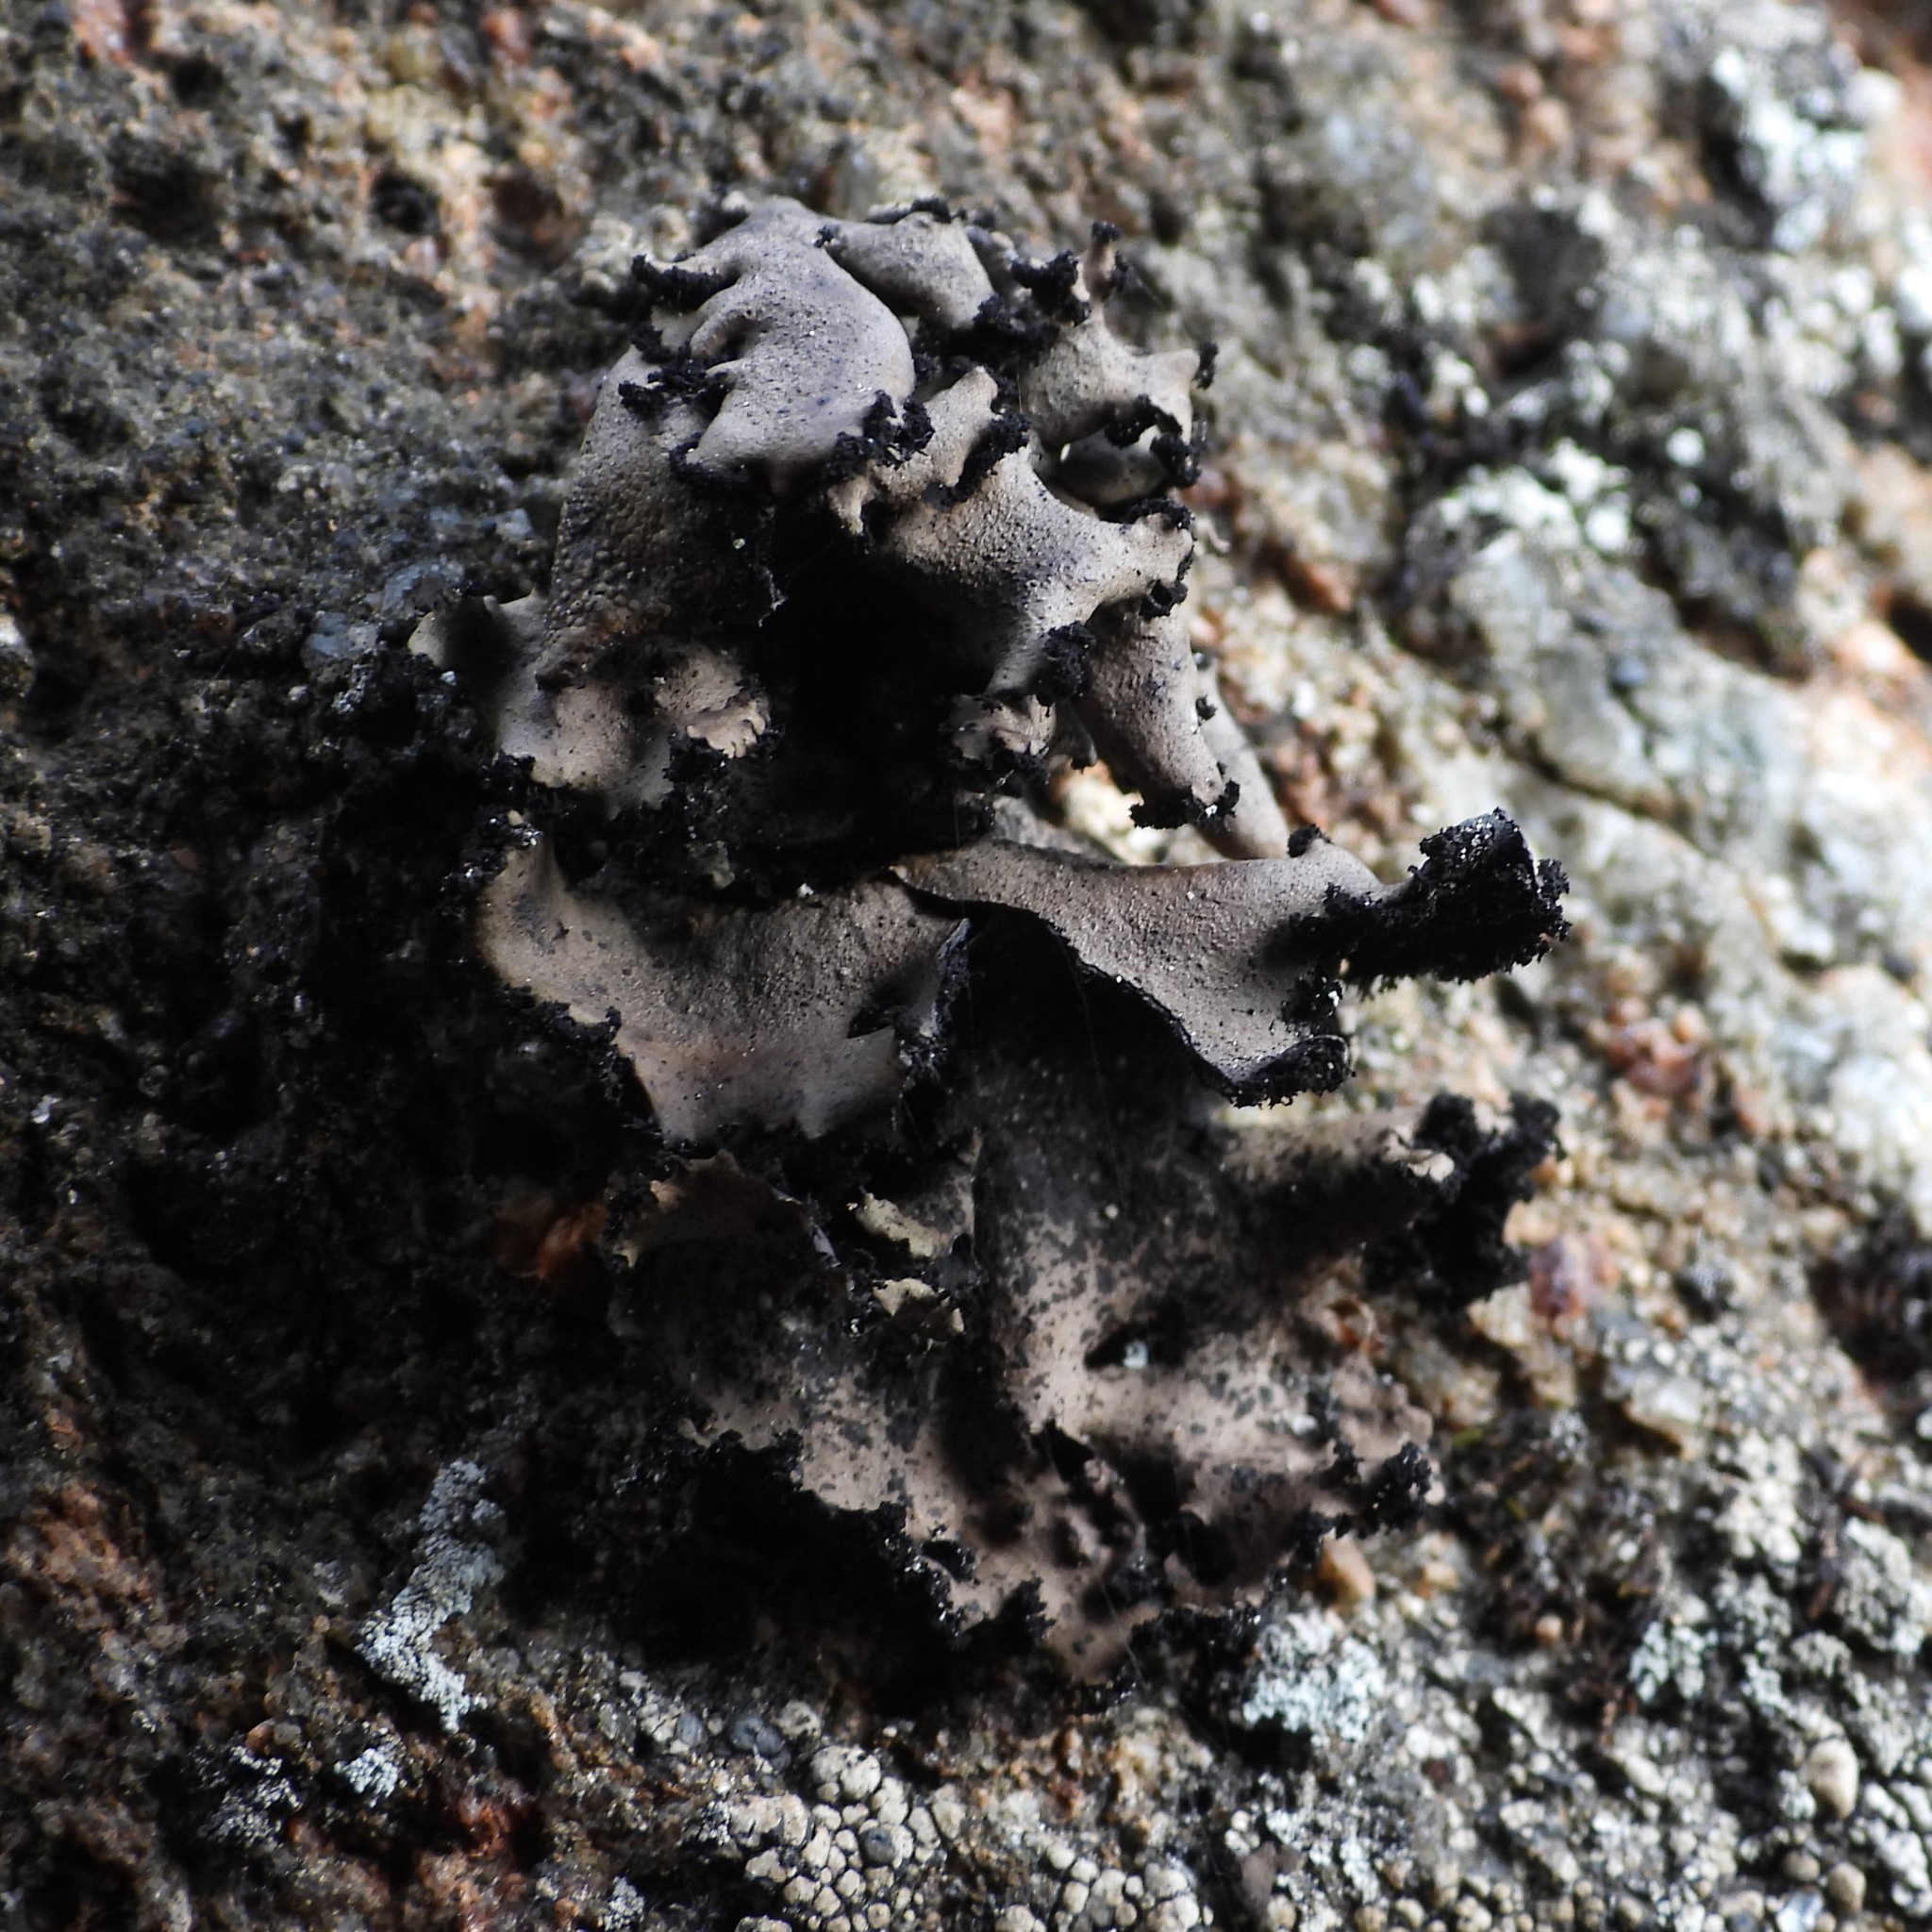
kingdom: Fungi
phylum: Ascomycota
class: Lecanoromycetes
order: Umbilicariales
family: Umbilicariaceae
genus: Umbilicaria
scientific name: Umbilicaria polyrrhiza
